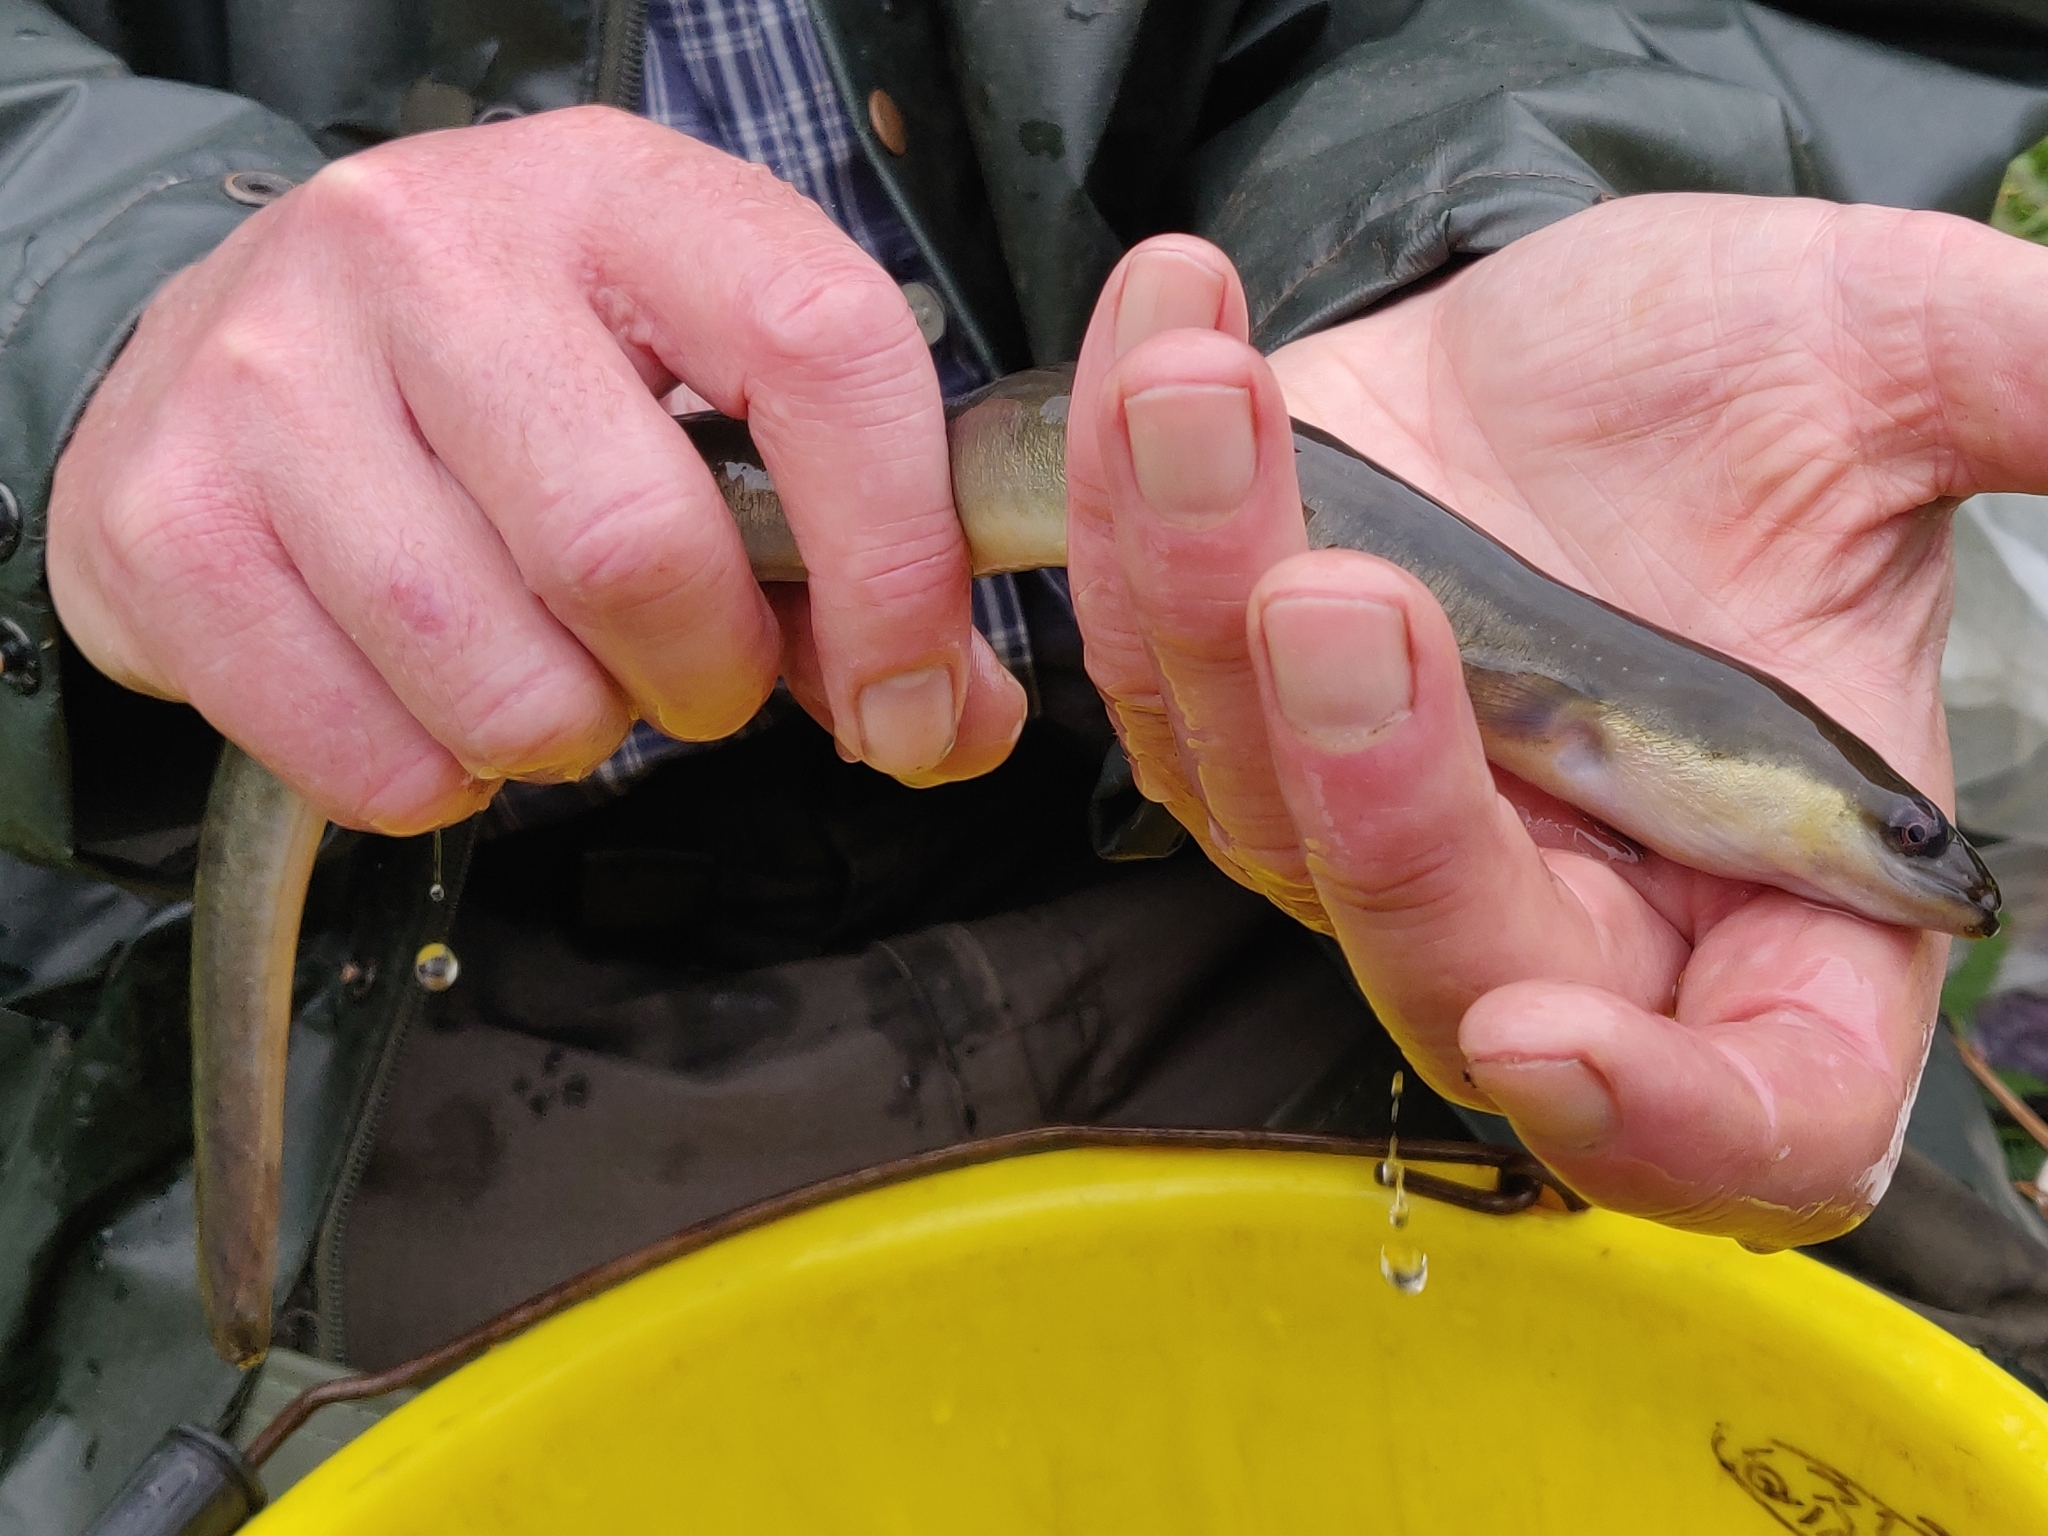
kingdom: Animalia
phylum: Chordata
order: Anguilliformes
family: Anguillidae
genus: Anguilla
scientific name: Anguilla anguilla
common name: European eel
